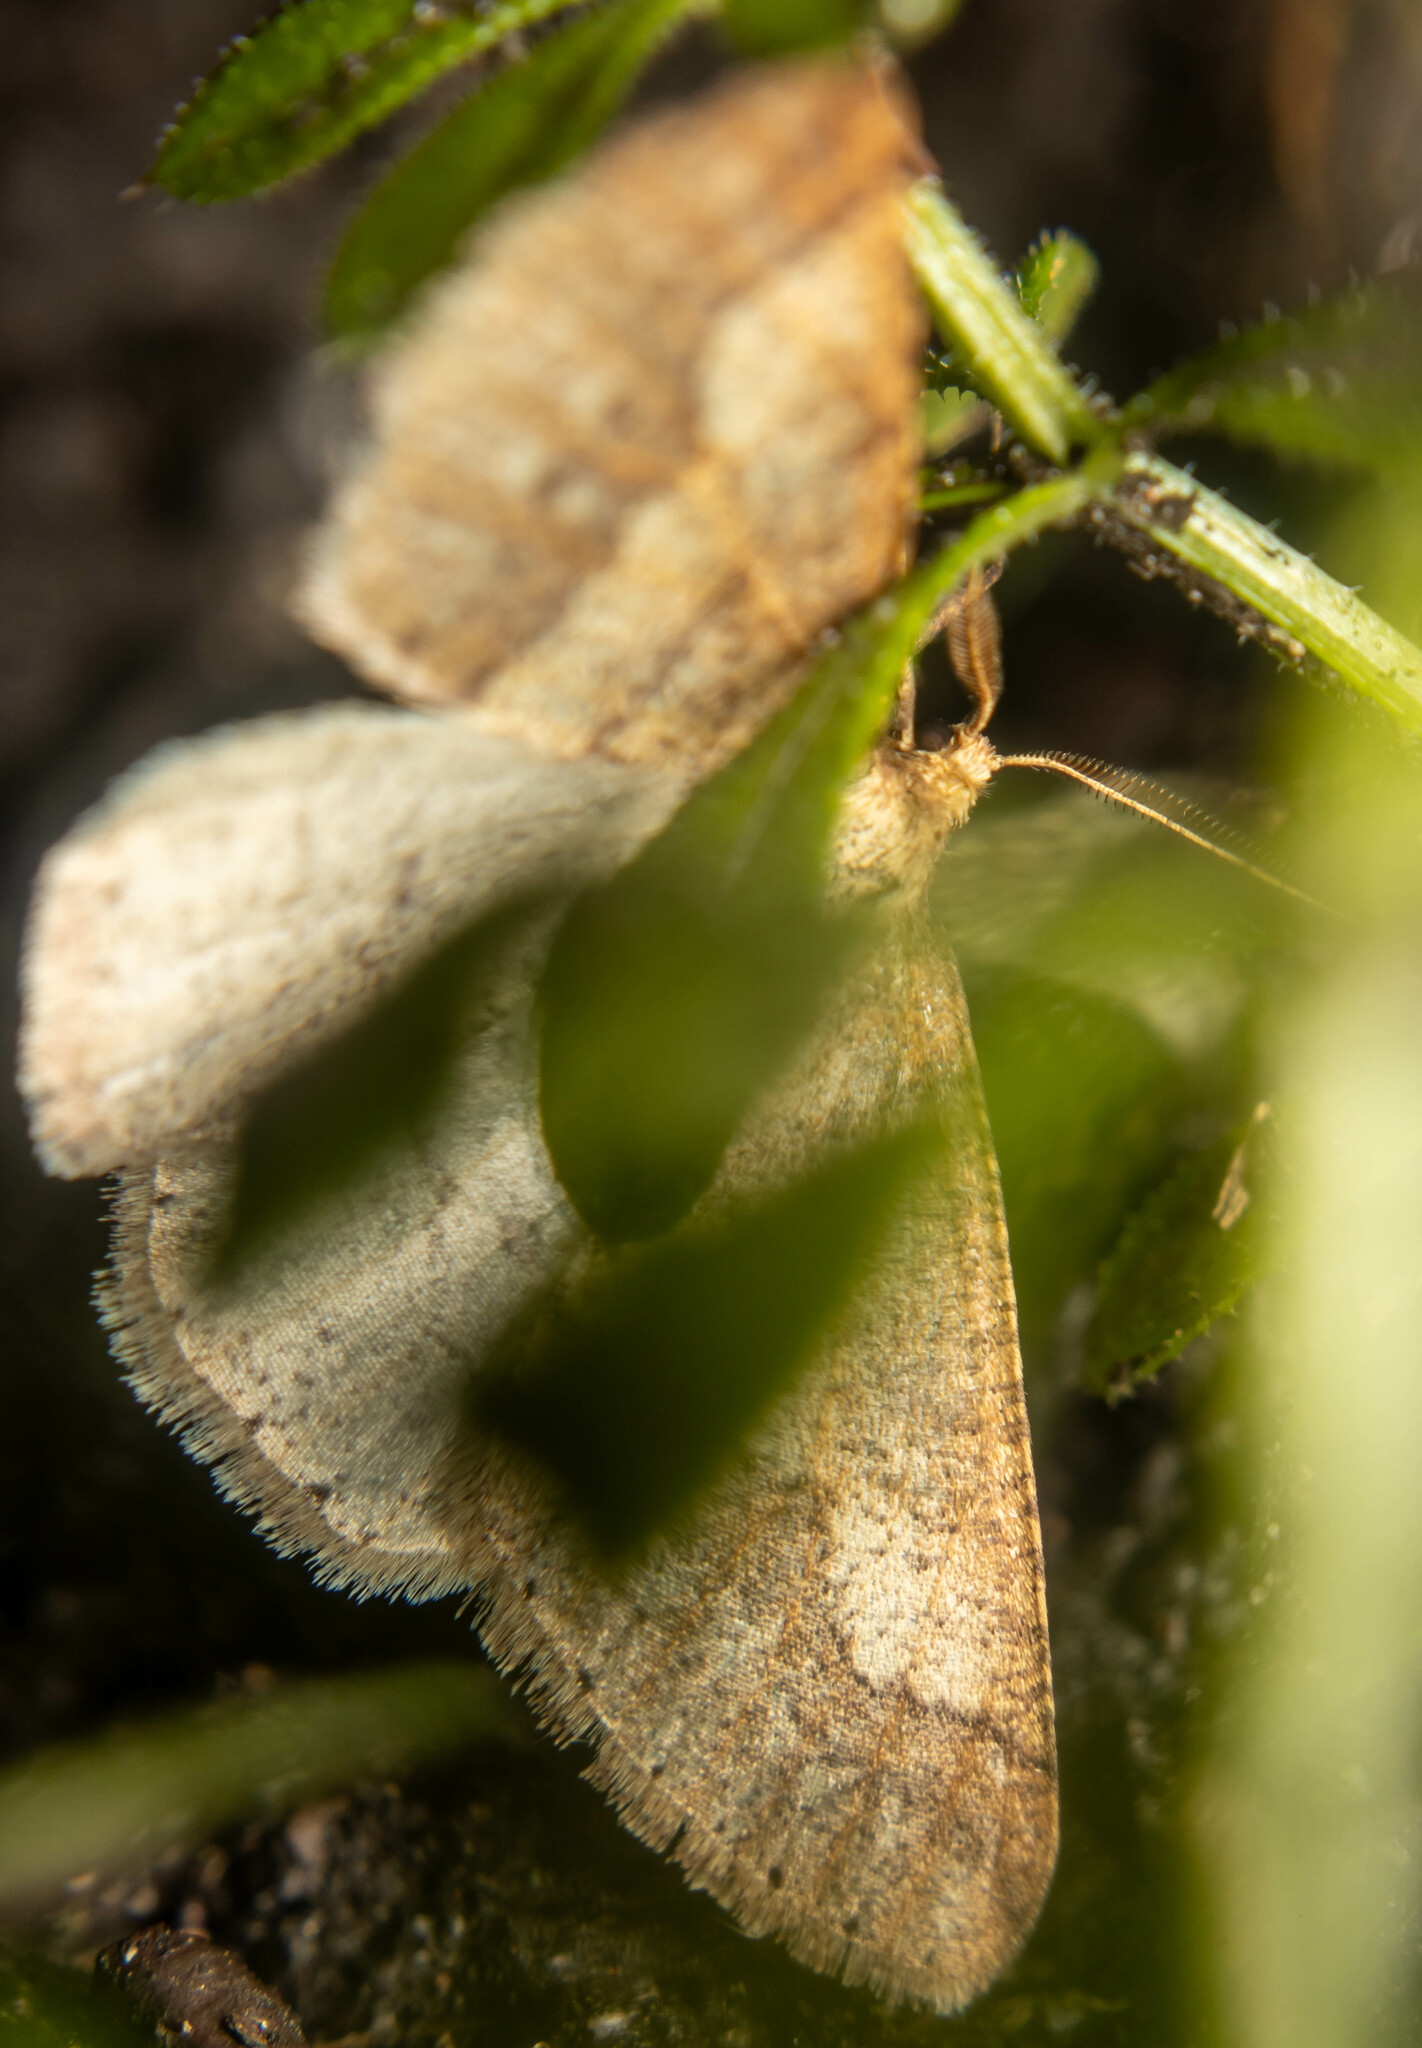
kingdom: Animalia
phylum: Arthropoda
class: Insecta
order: Lepidoptera
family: Geometridae
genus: Agriopis
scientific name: Agriopis marginaria
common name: Dotted border
